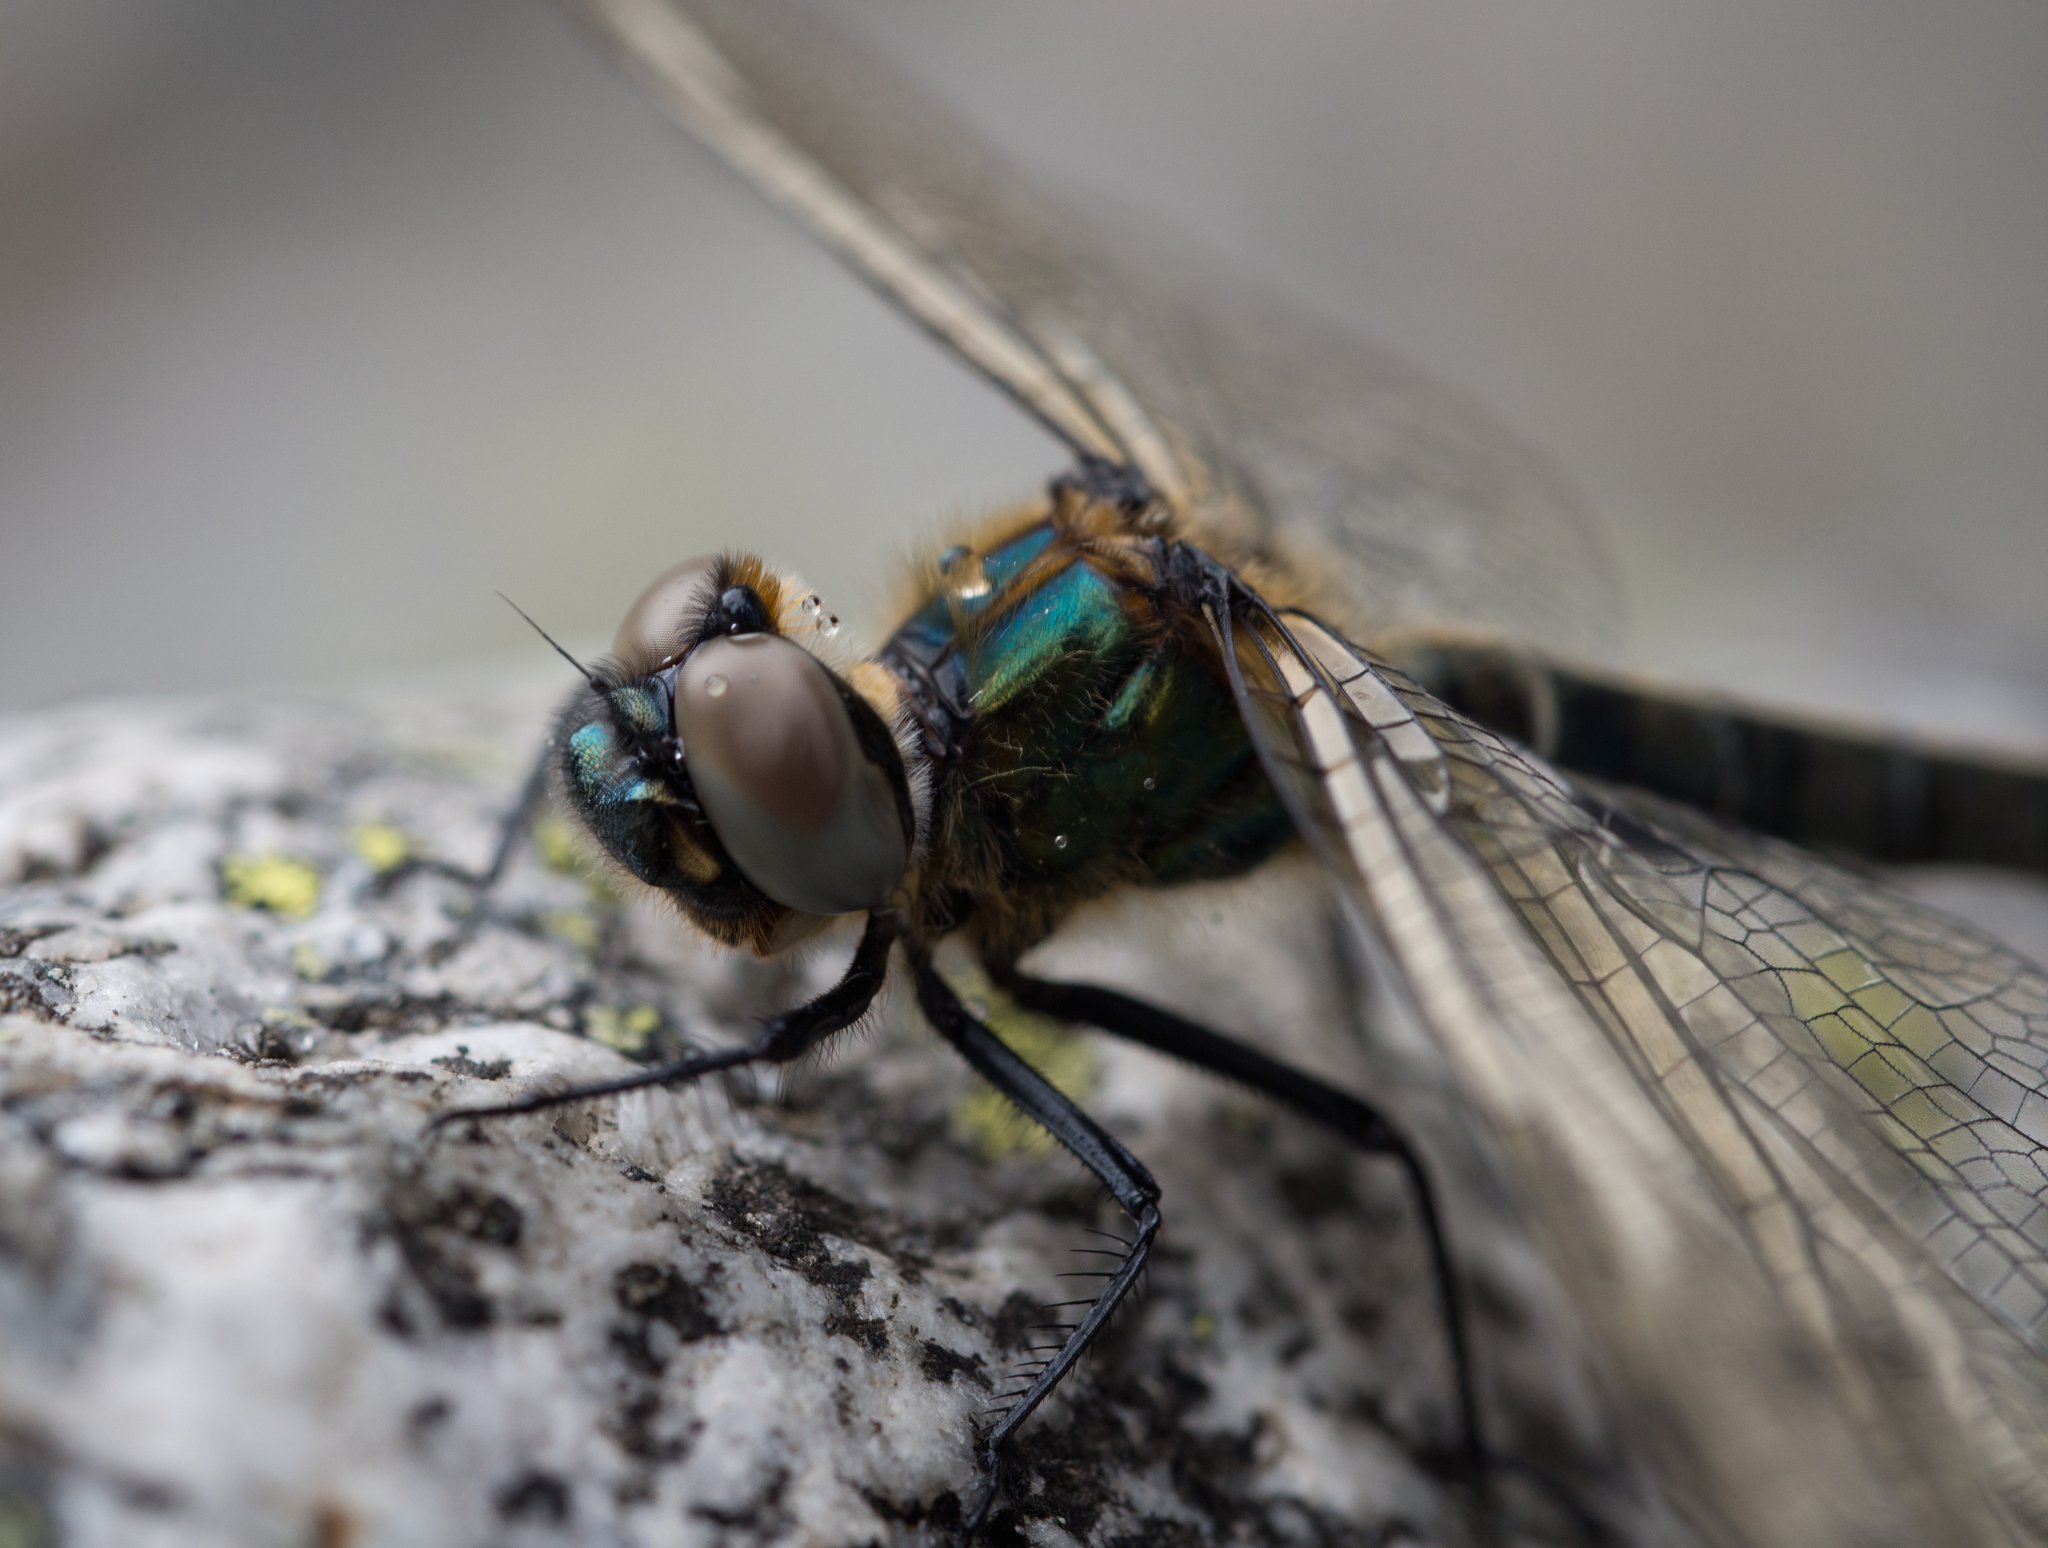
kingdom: Animalia
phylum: Arthropoda
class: Insecta
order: Odonata
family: Corduliidae
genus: Somatochlora
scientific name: Somatochlora alpestris
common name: Alpine emerald
